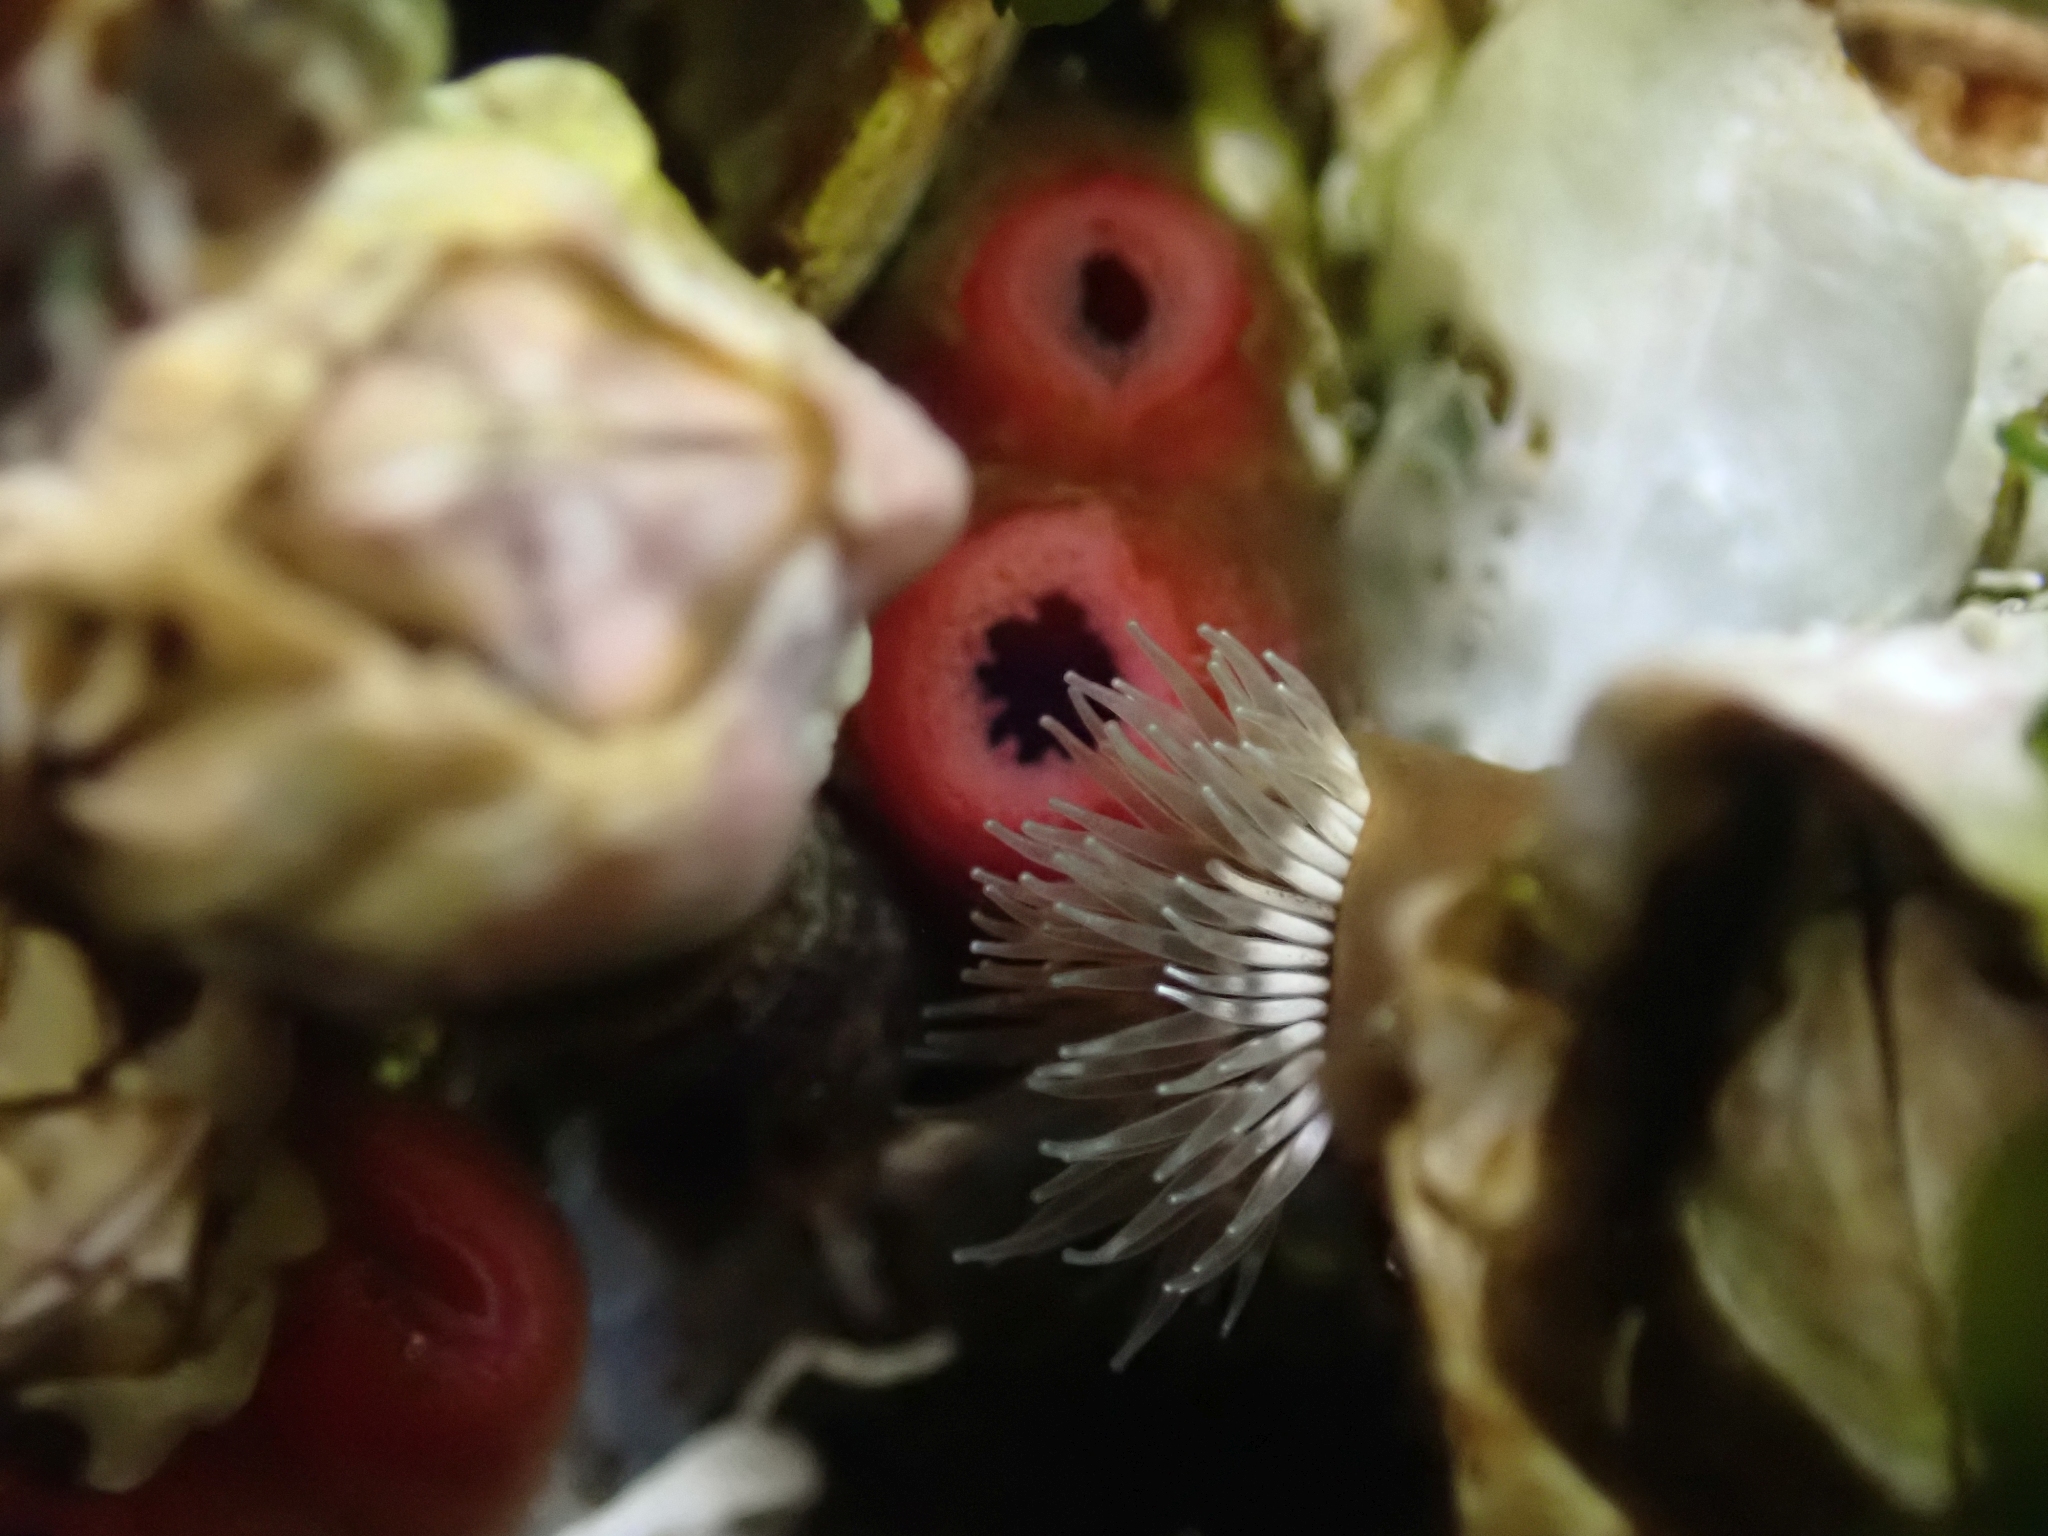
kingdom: Animalia
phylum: Mollusca
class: Bivalvia
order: Adapedonta
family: Hiatellidae
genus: Hiatella
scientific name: Hiatella arctica
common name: Arctic hiatella
